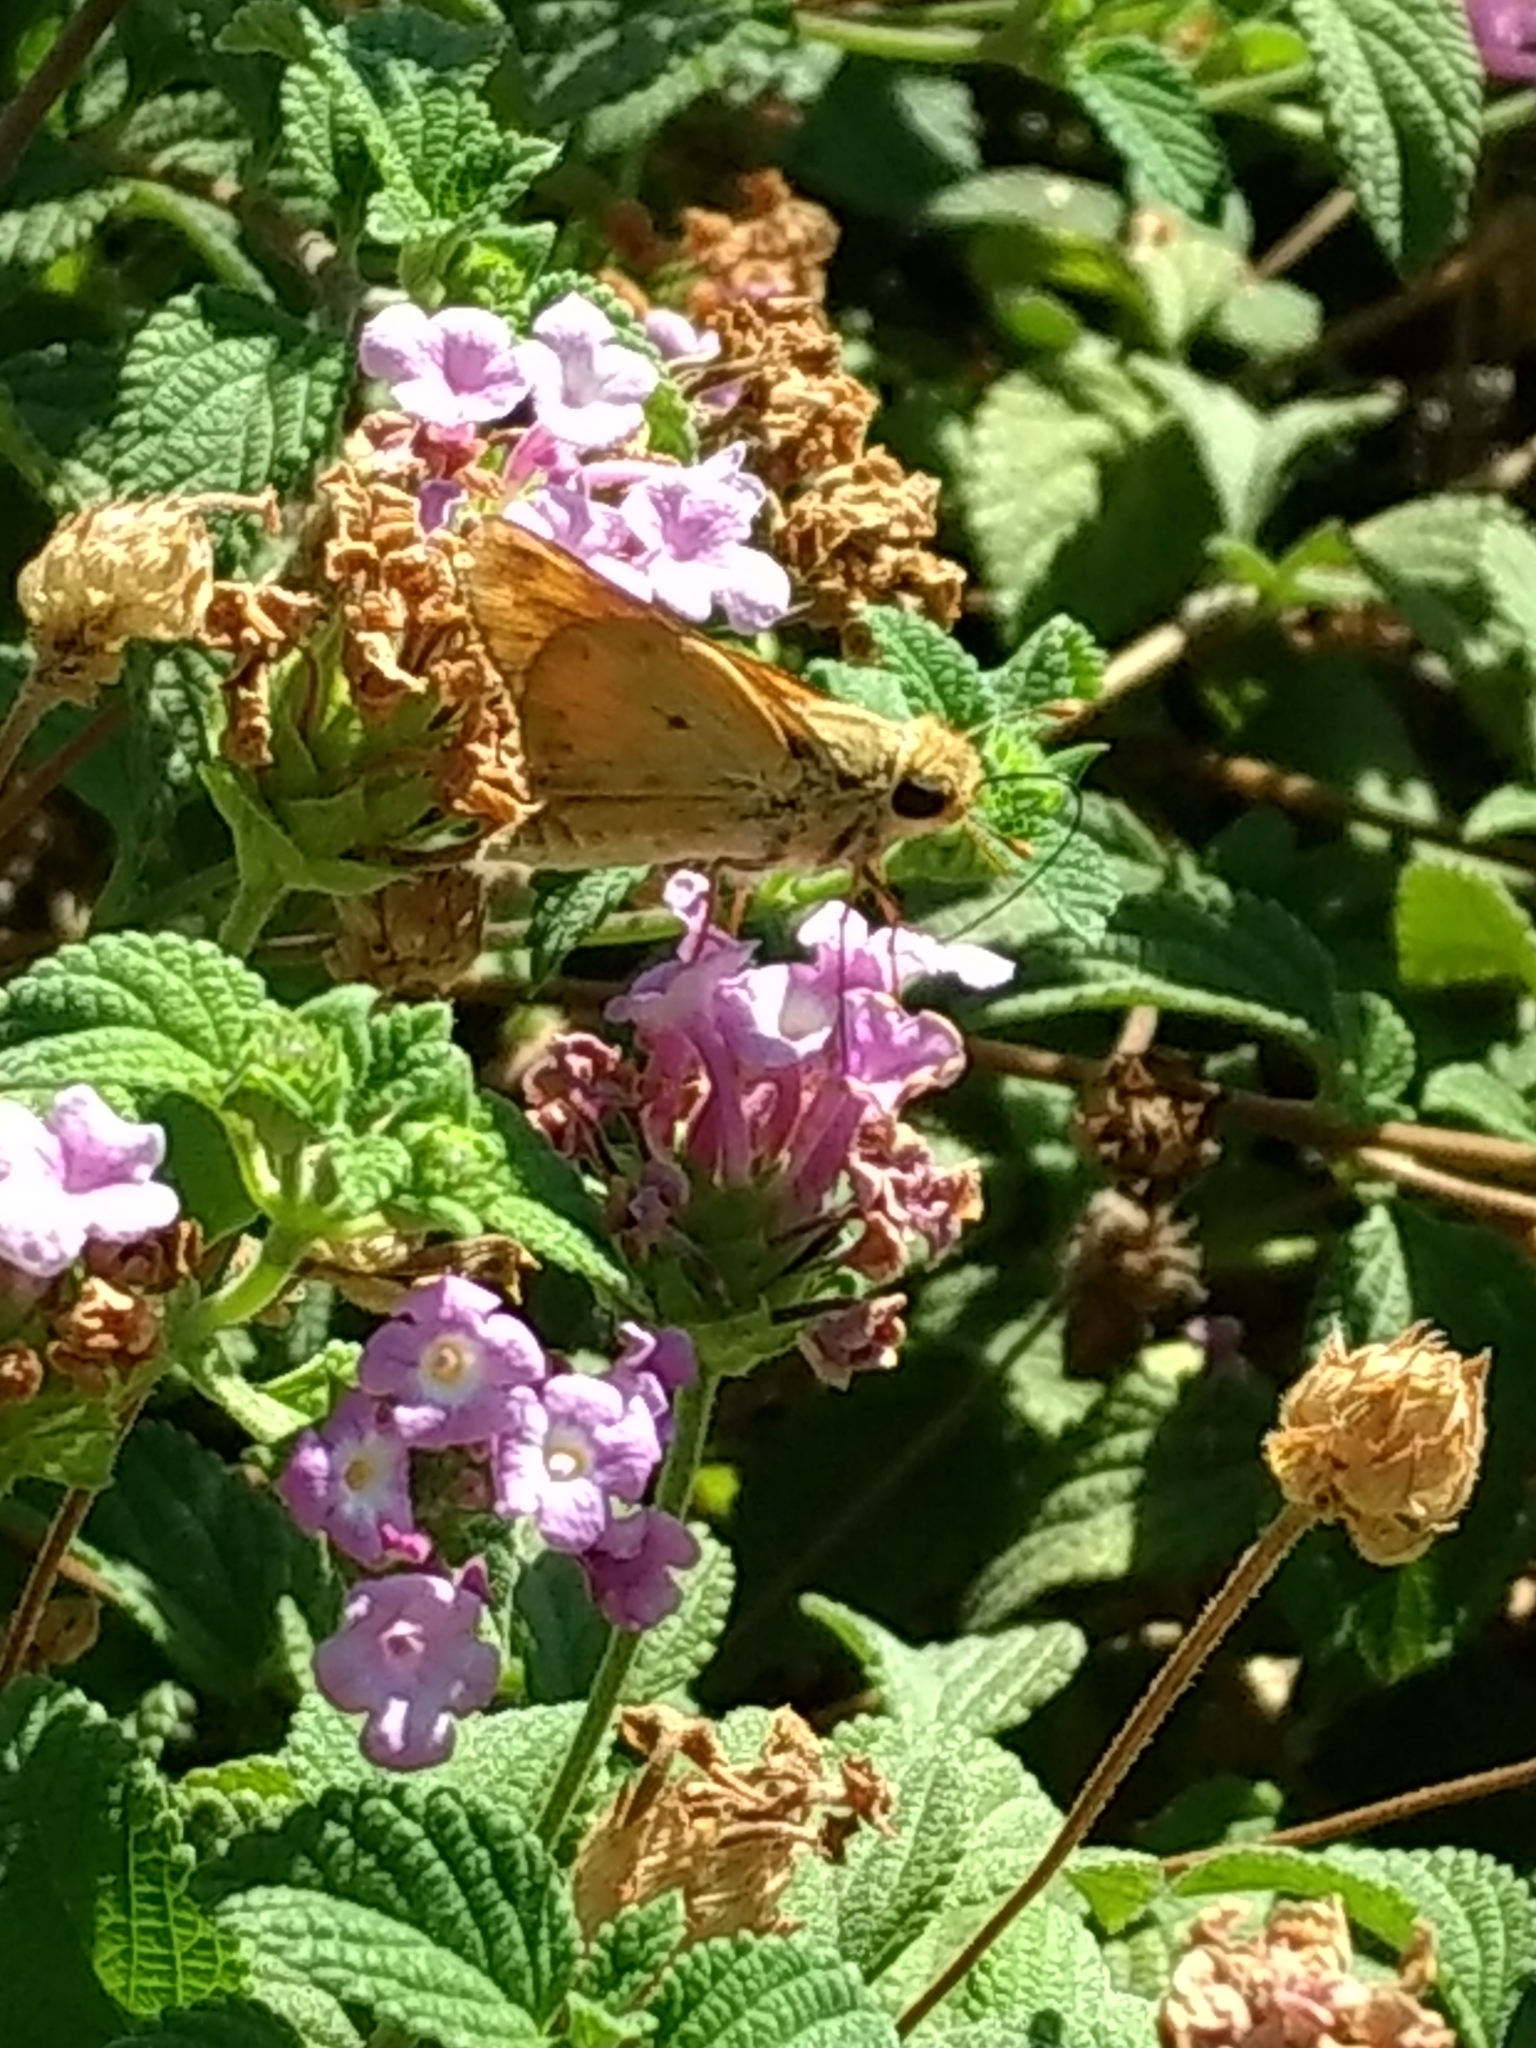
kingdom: Animalia
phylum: Arthropoda
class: Insecta
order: Lepidoptera
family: Hesperiidae
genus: Hylephila
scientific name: Hylephila phyleus
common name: Fiery skipper
